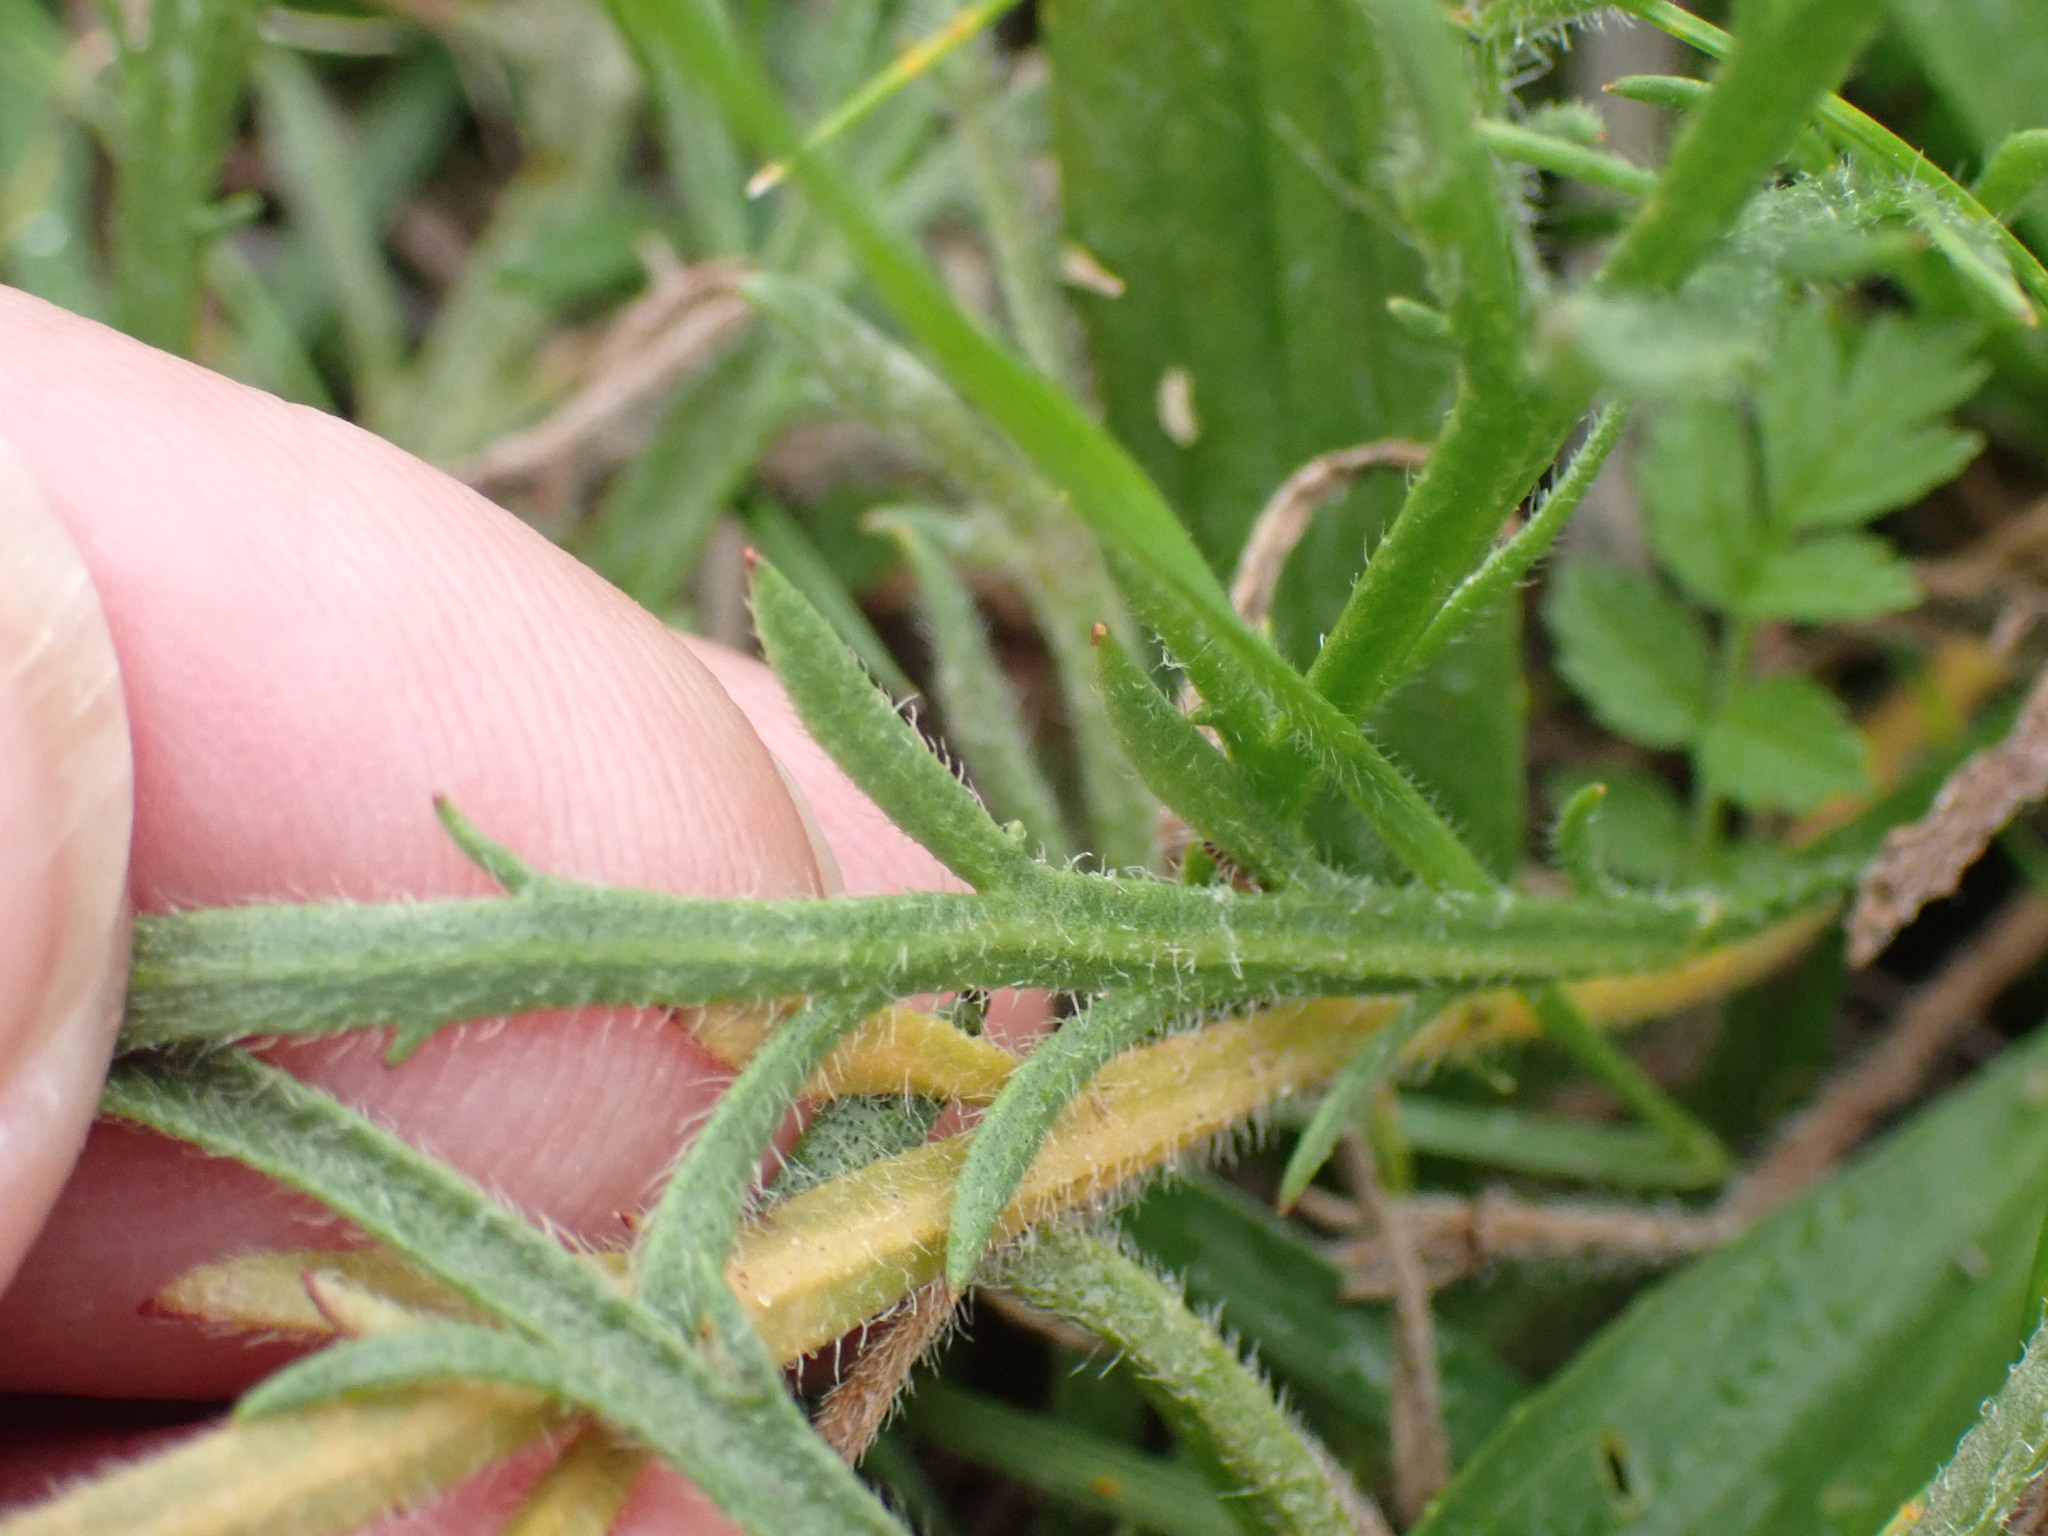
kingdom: Plantae
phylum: Tracheophyta
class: Magnoliopsida
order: Lamiales
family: Plantaginaceae
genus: Plantago
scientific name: Plantago coronopus
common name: Buck's-horn plantain
